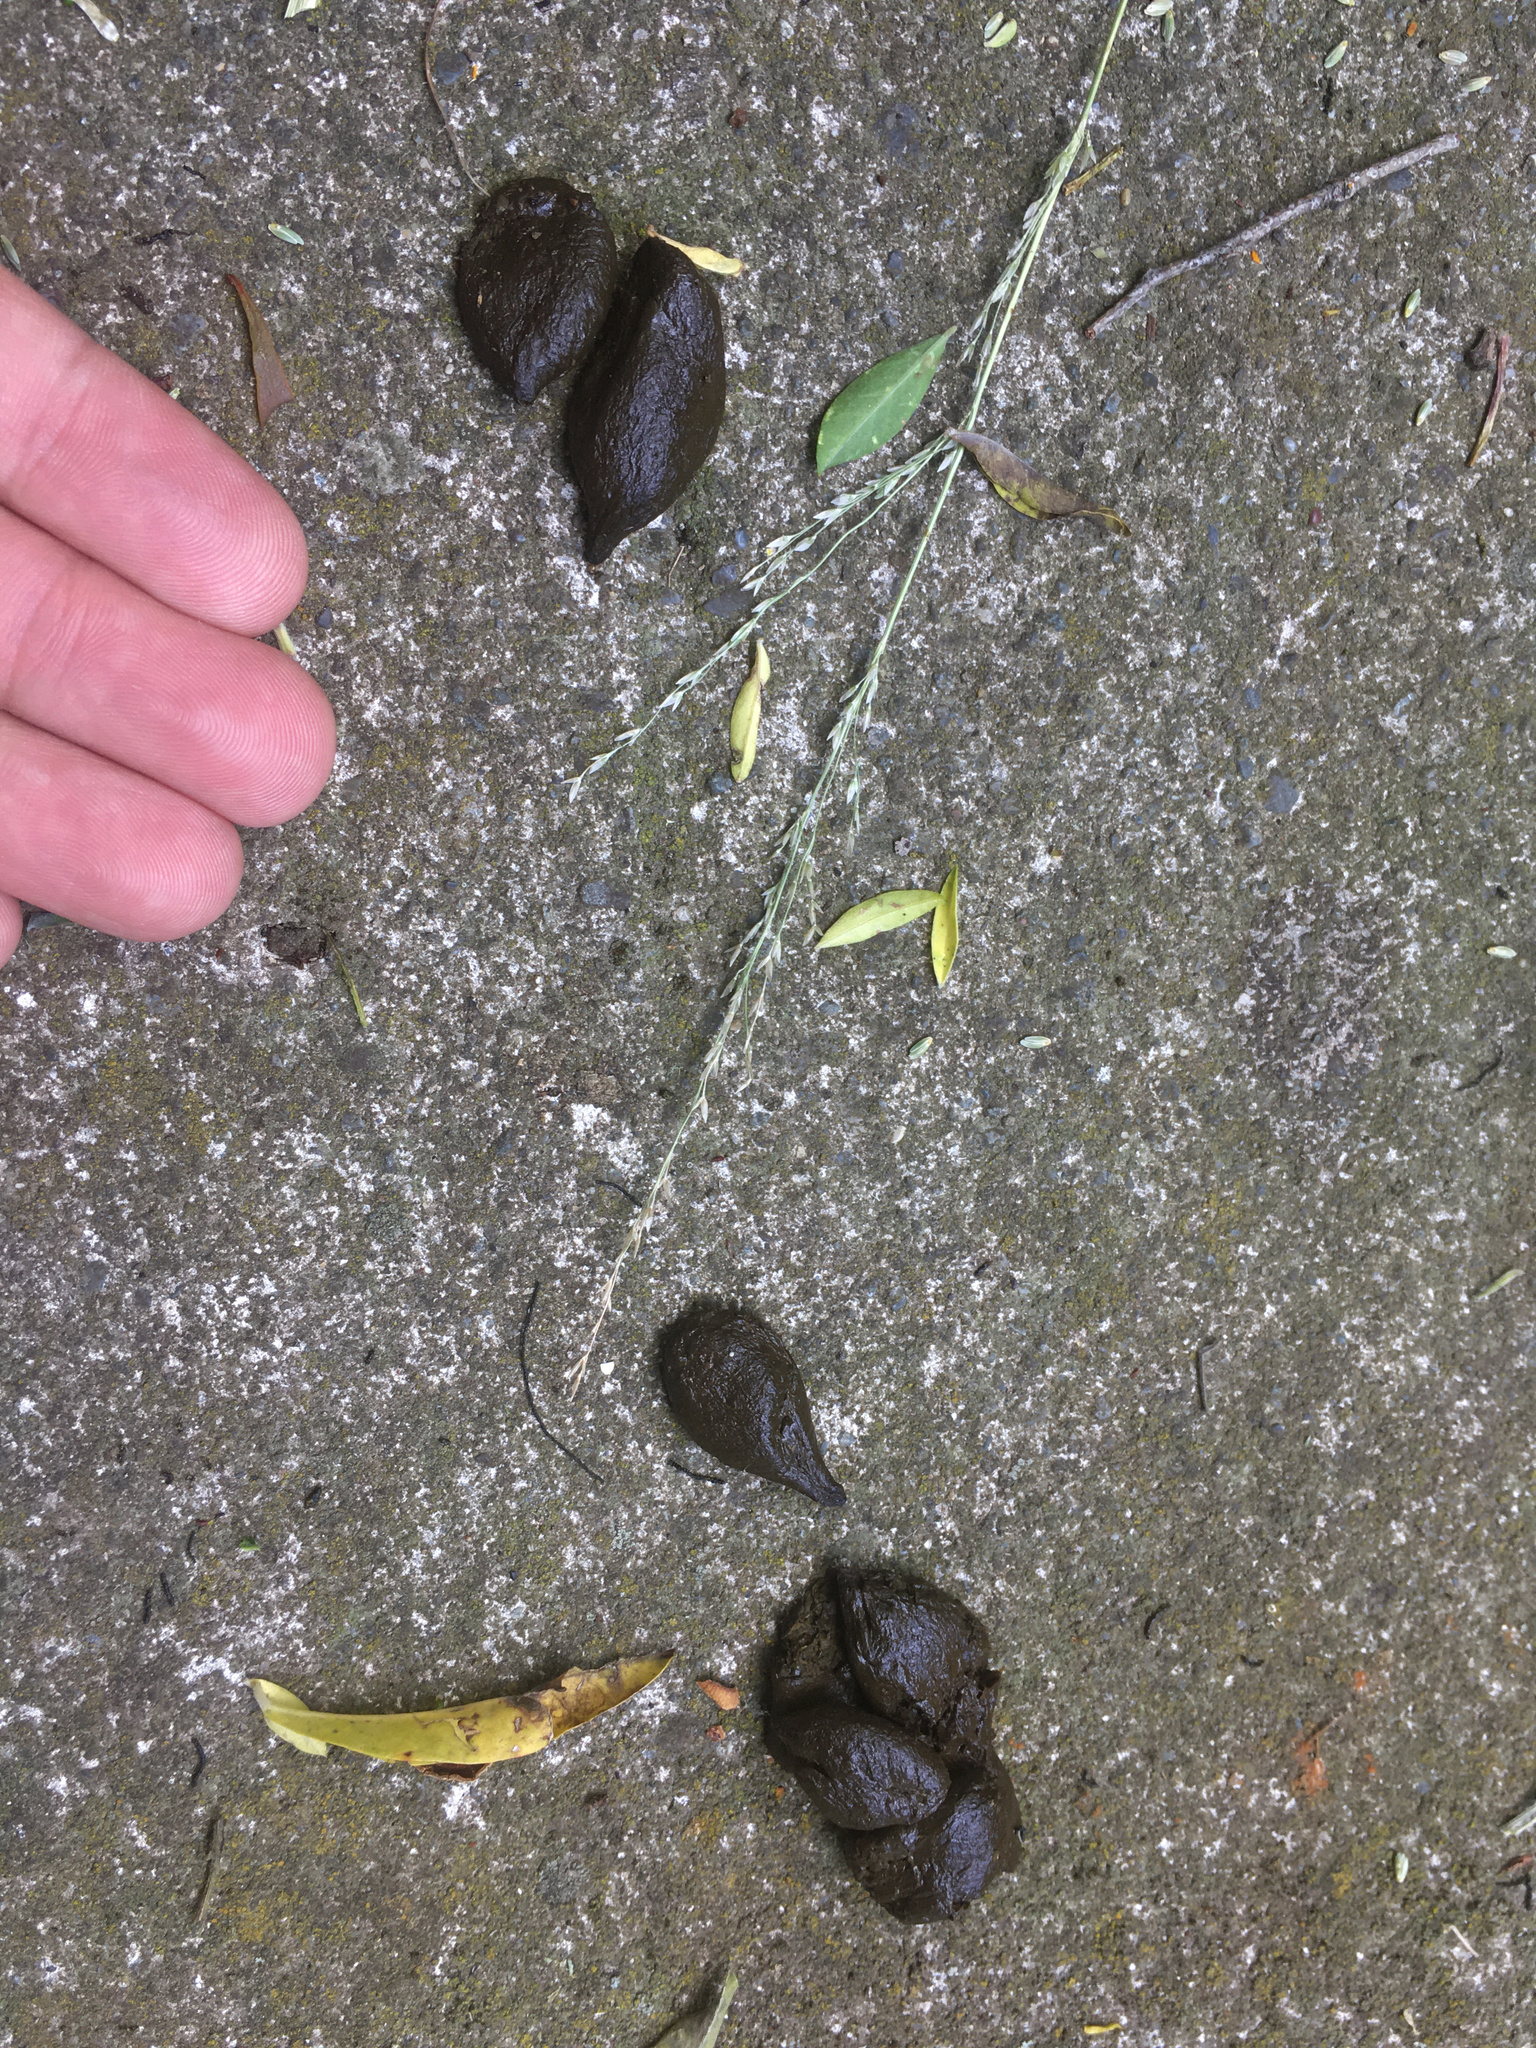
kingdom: Animalia
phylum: Chordata
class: Mammalia
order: Diprotodontia
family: Phalangeridae
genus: Trichosurus
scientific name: Trichosurus vulpecula
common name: Common brushtail
